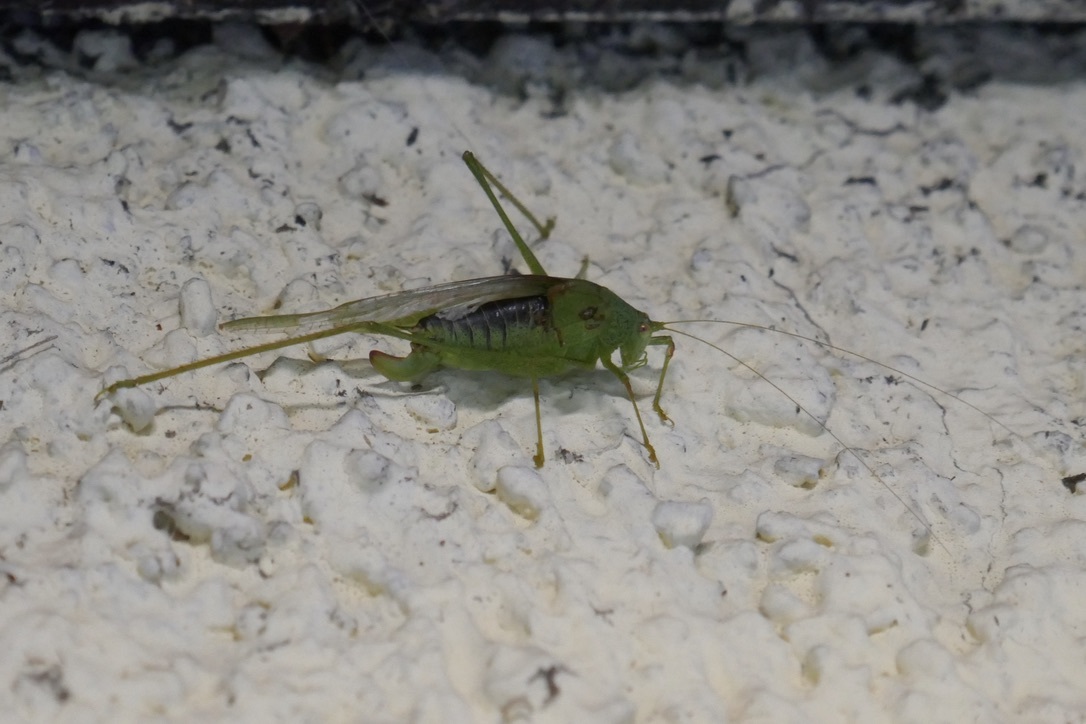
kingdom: Animalia
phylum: Arthropoda
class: Insecta
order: Orthoptera
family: Tettigoniidae
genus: Phaneroptera
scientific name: Phaneroptera nana
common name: Southern sickle bush-cricket
